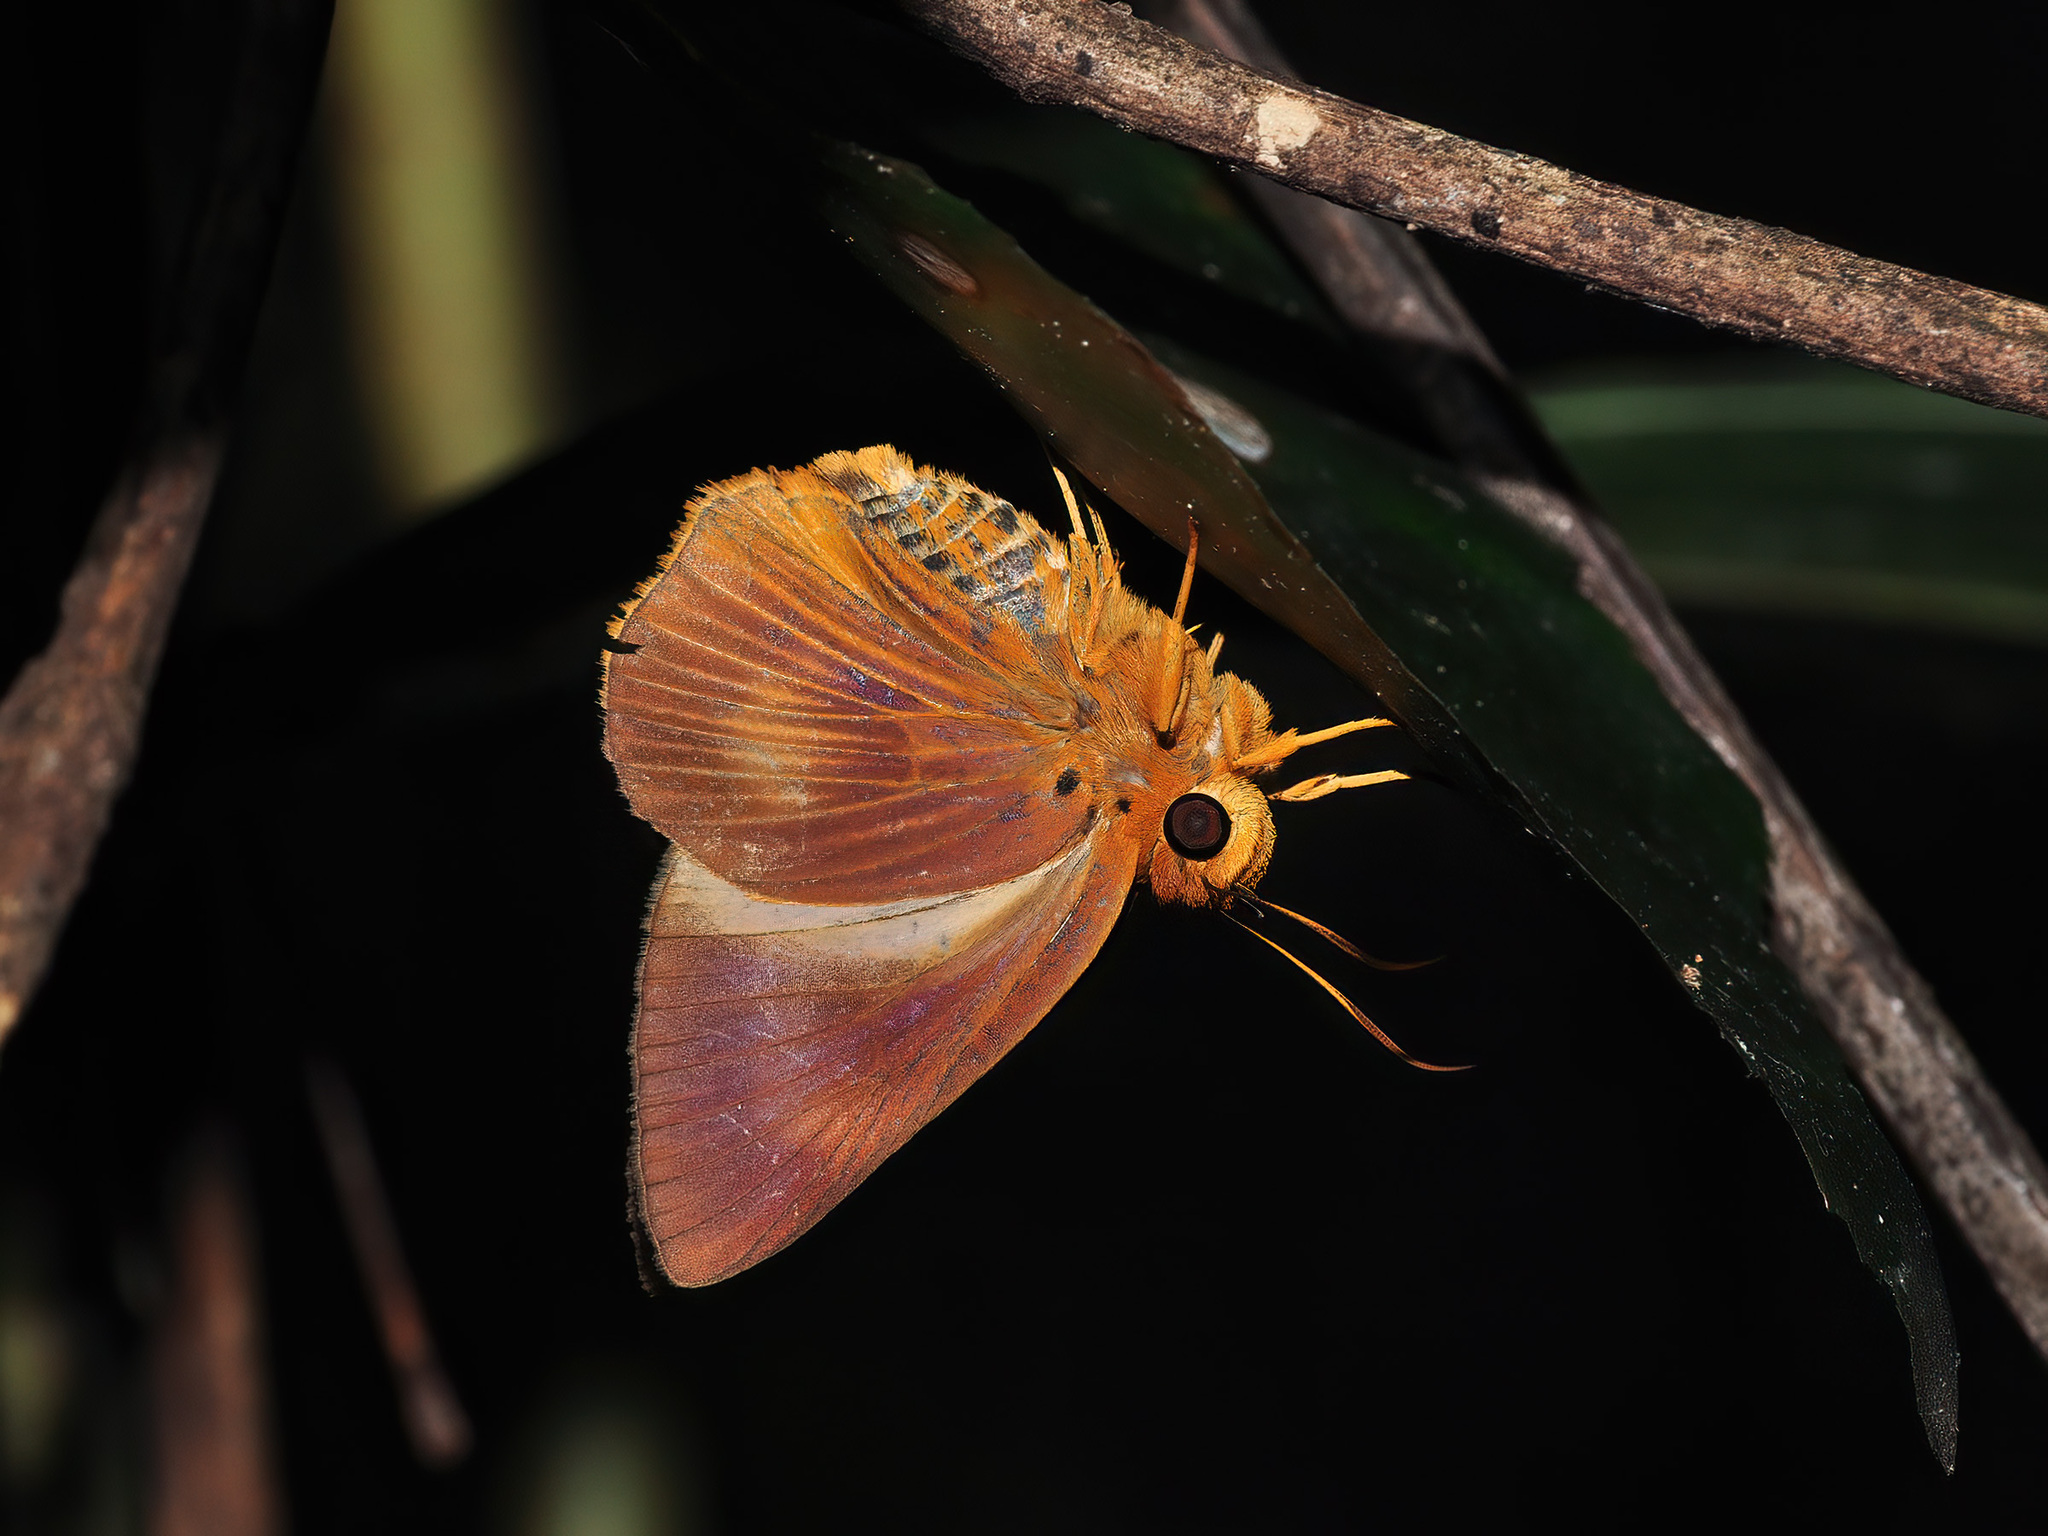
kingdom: Animalia
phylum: Arthropoda
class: Insecta
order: Lepidoptera
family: Hesperiidae
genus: Bibasis
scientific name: Bibasis harisa
